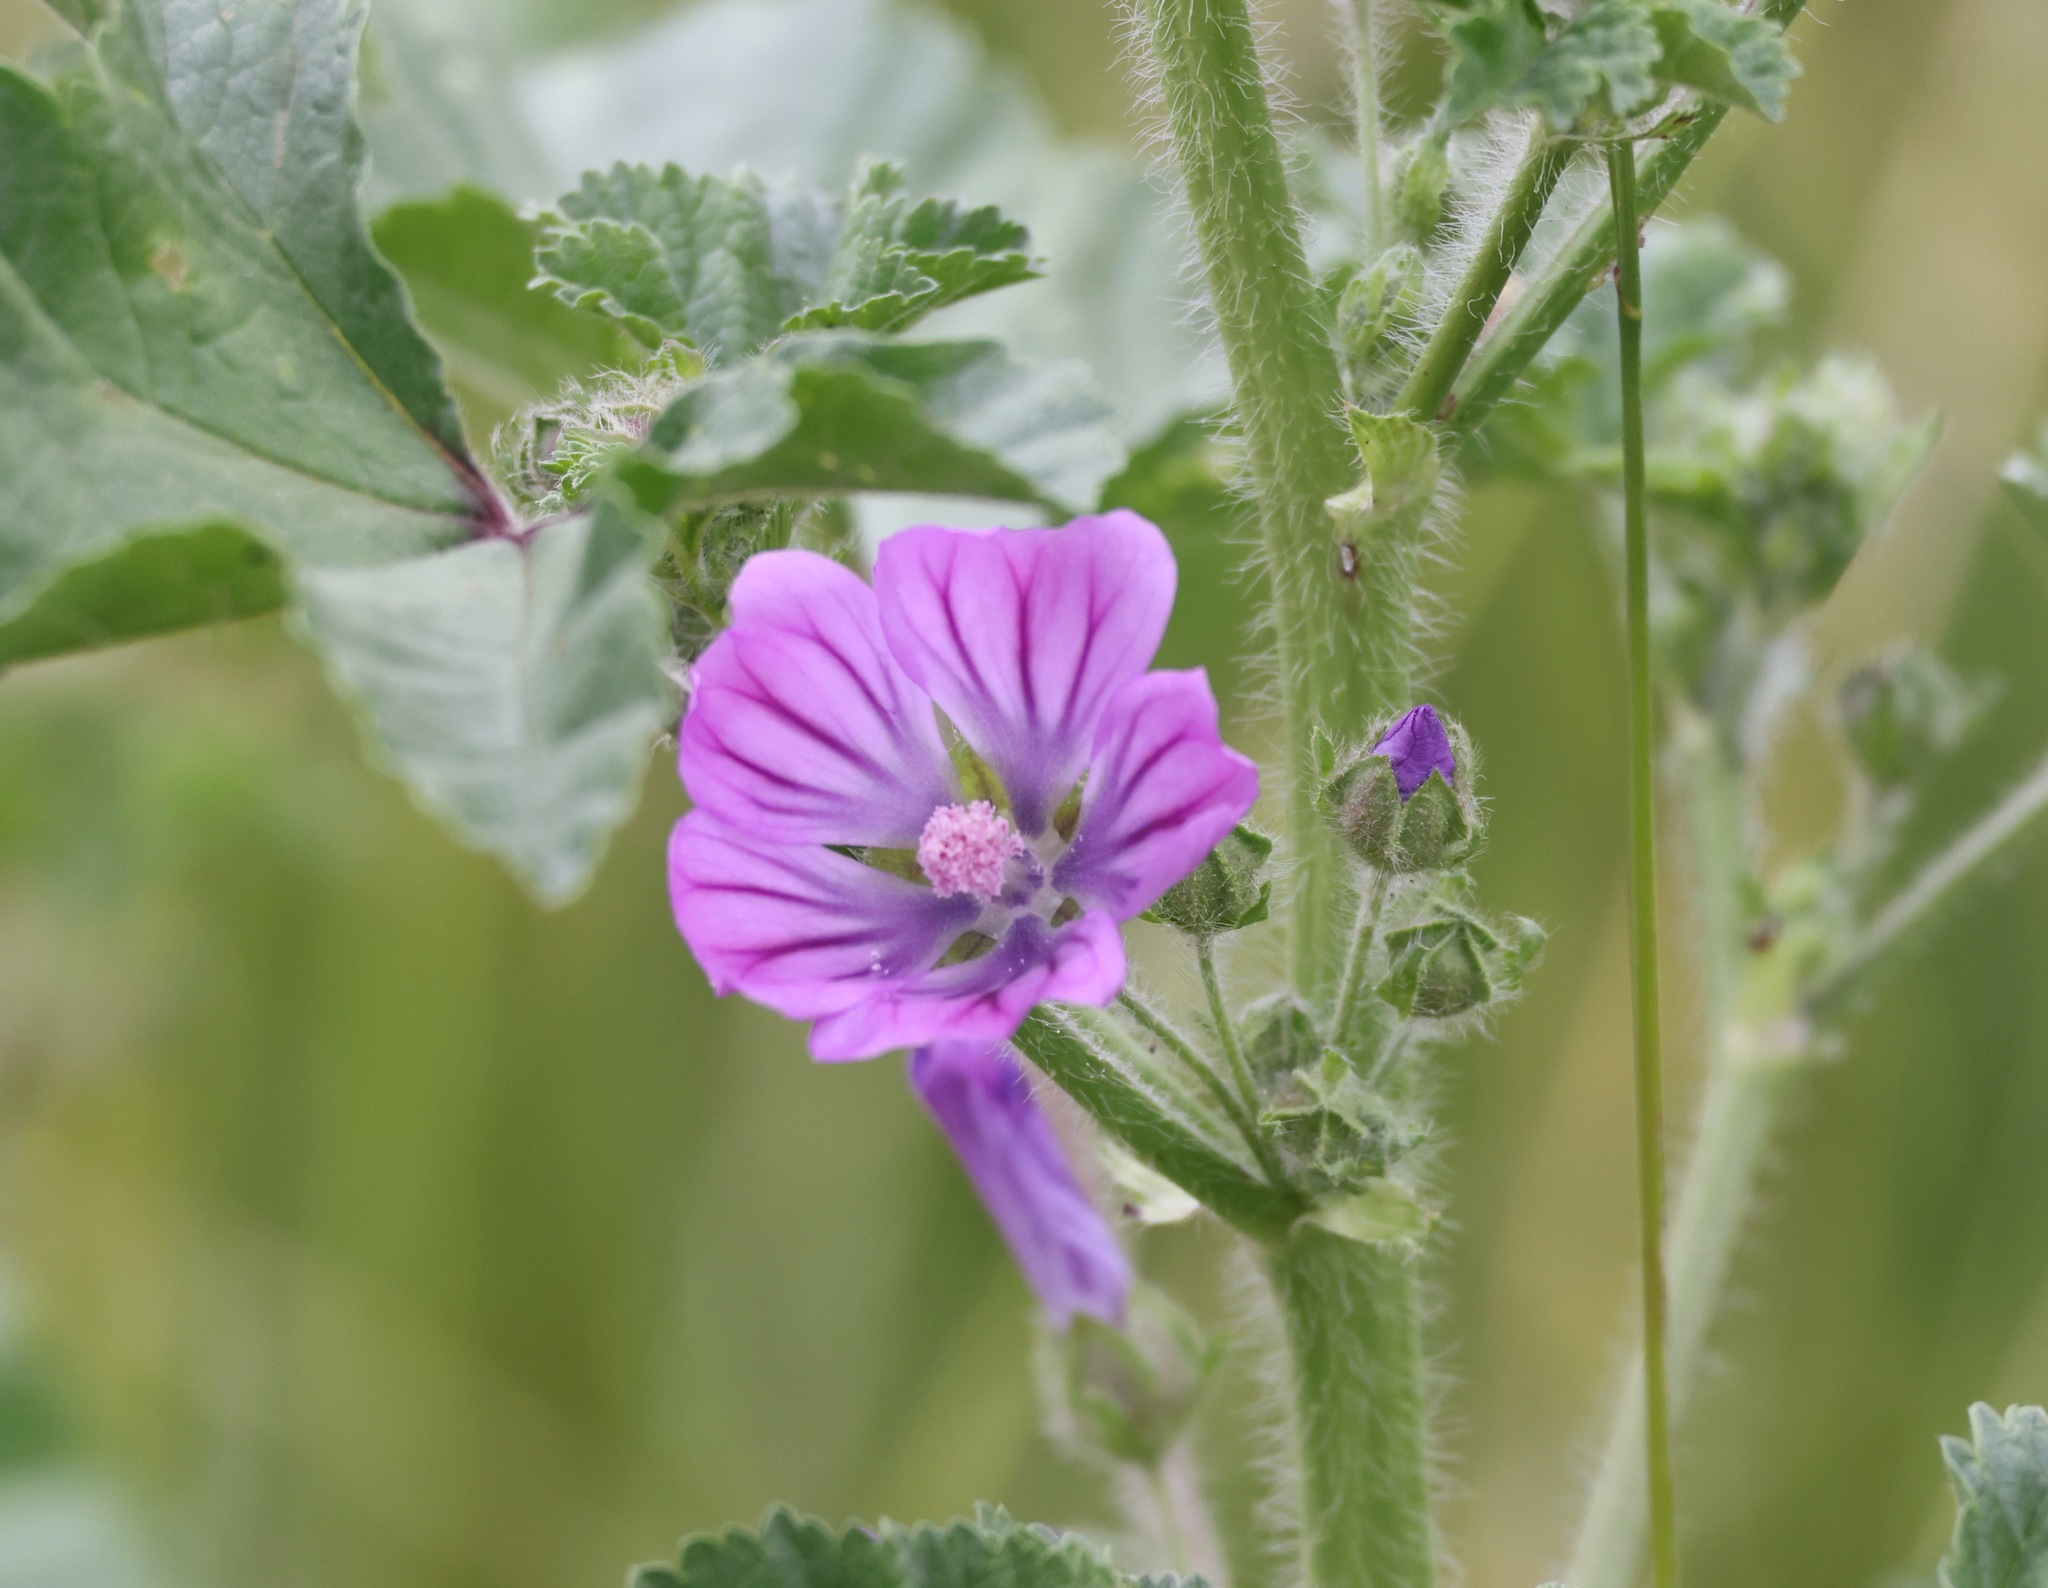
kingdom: Plantae
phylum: Tracheophyta
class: Magnoliopsida
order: Malvales
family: Malvaceae
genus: Malva
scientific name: Malva sylvestris
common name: Common mallow
